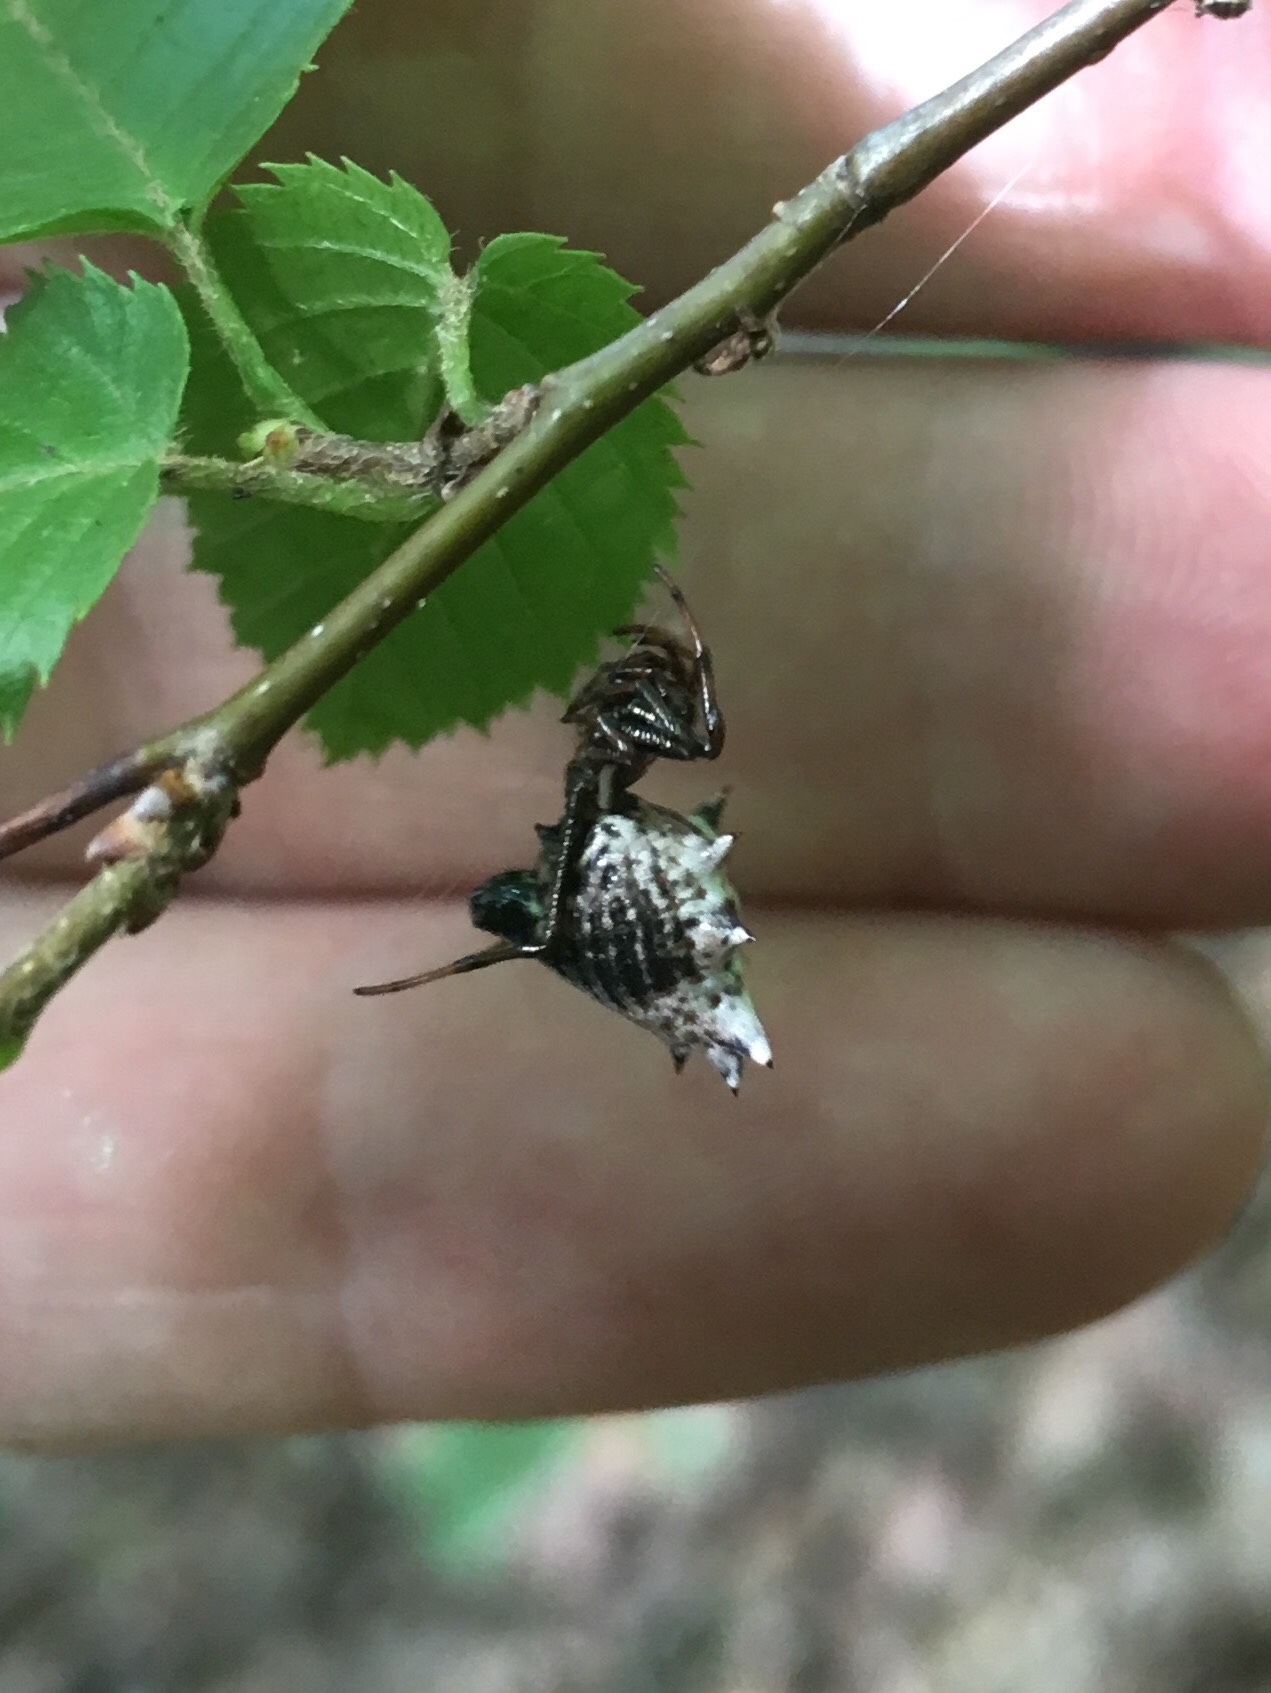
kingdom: Animalia
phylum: Arthropoda
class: Arachnida
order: Araneae
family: Araneidae
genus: Micrathena
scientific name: Micrathena gracilis
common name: Orb weavers
